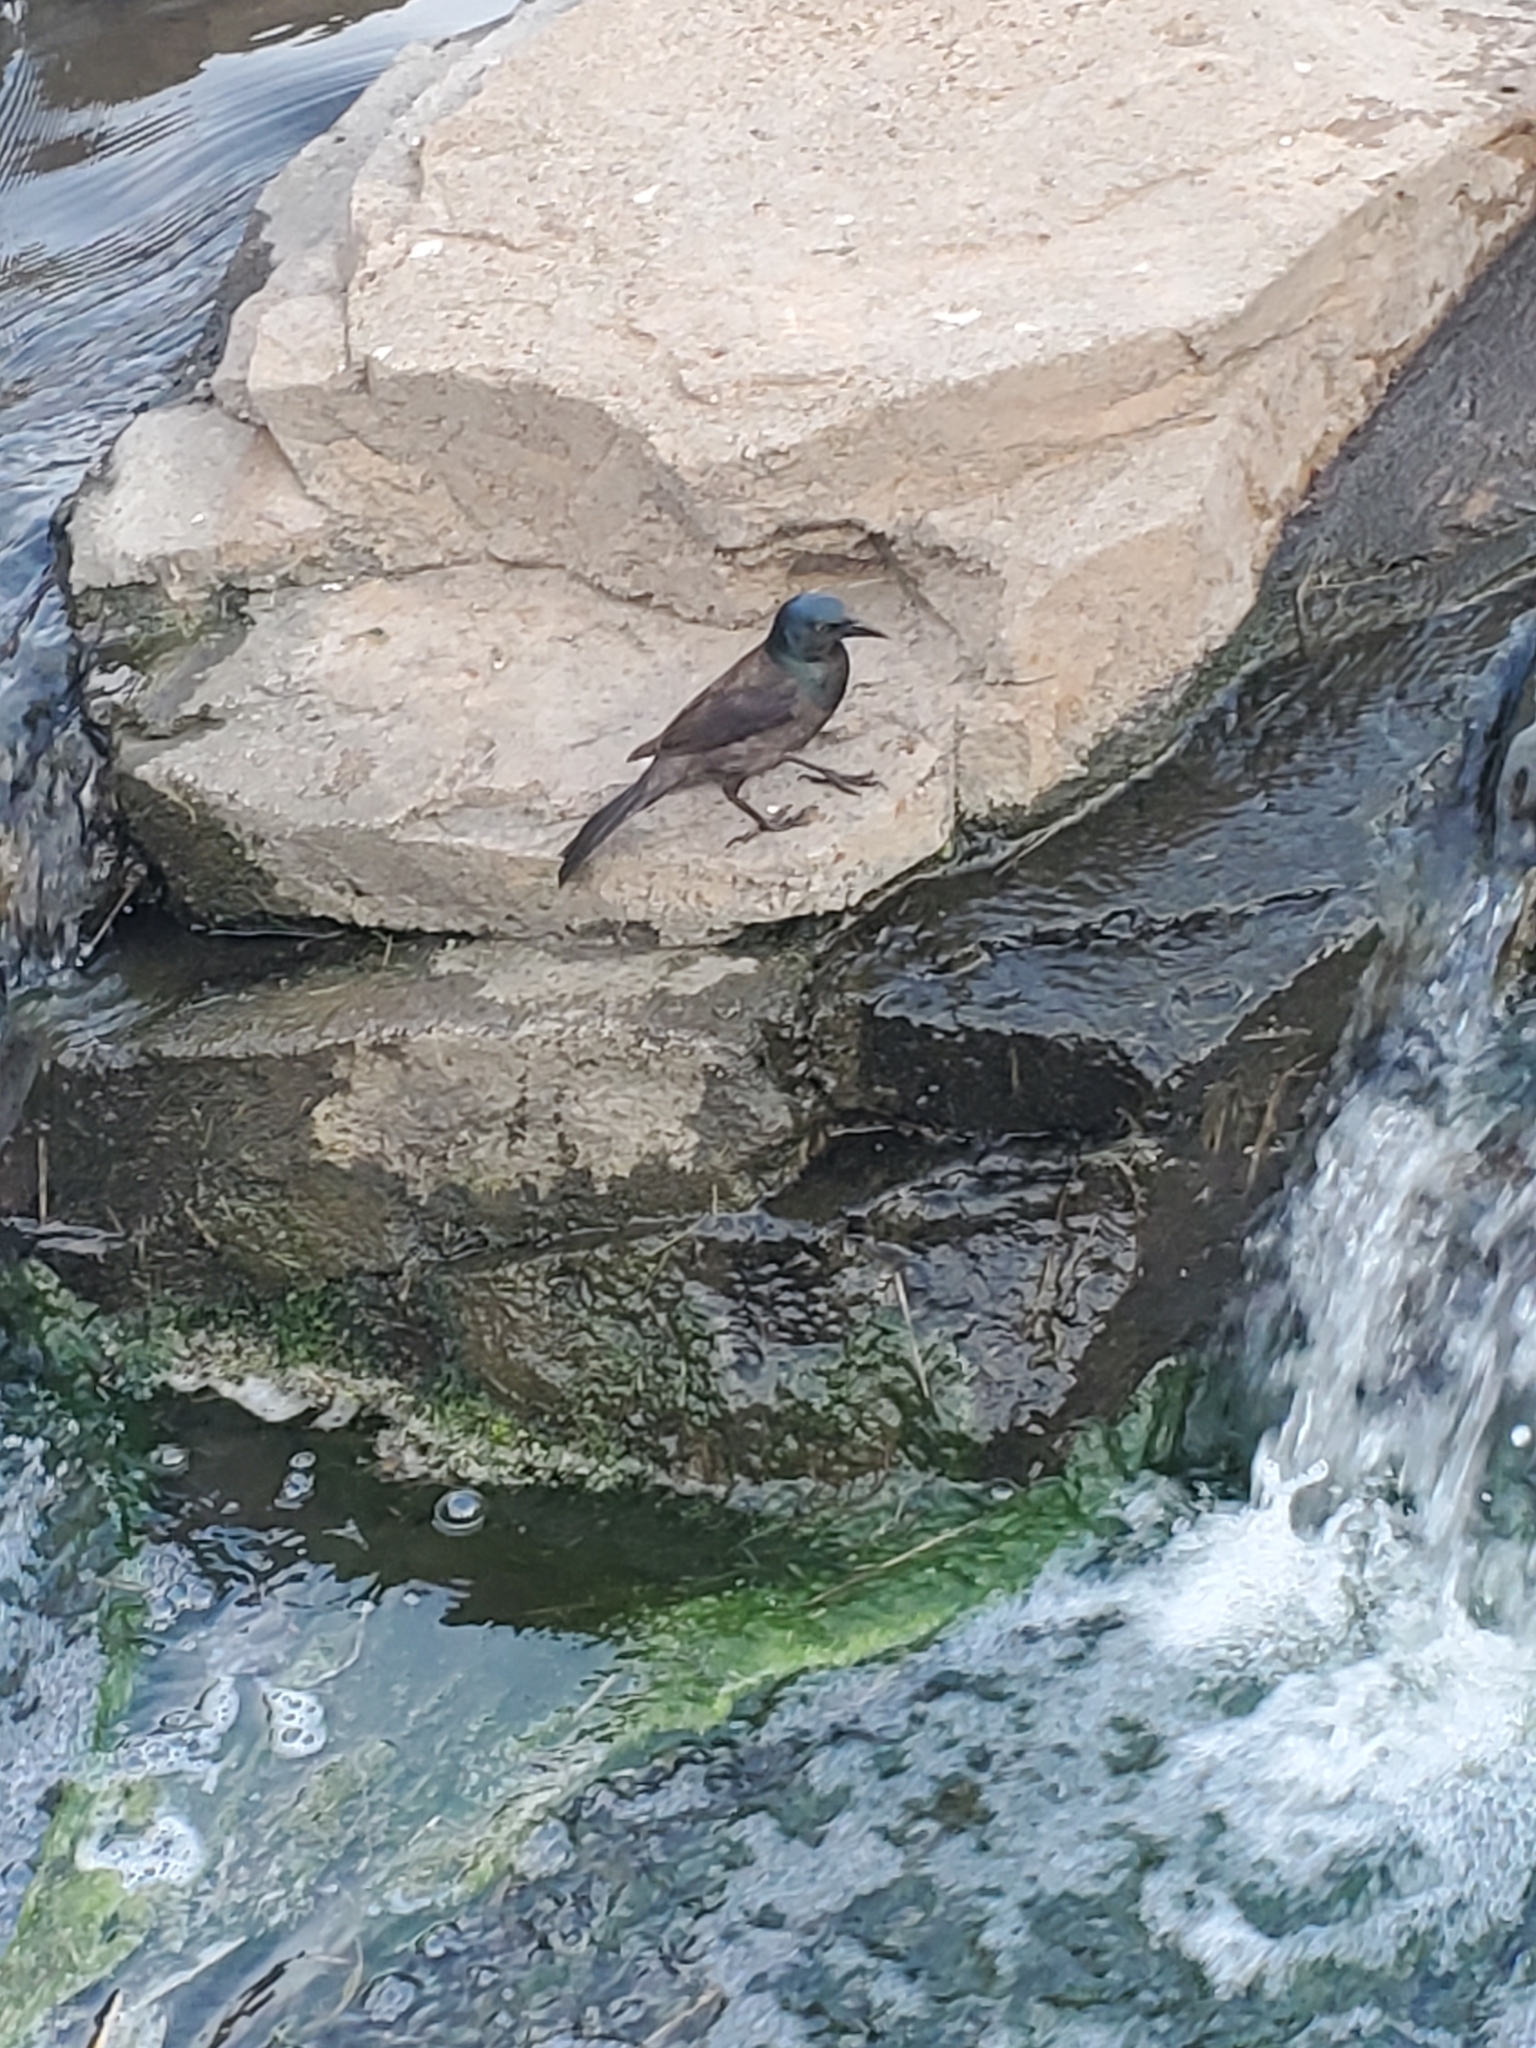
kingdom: Animalia
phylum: Chordata
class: Aves
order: Passeriformes
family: Icteridae
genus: Quiscalus
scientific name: Quiscalus quiscula
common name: Common grackle
